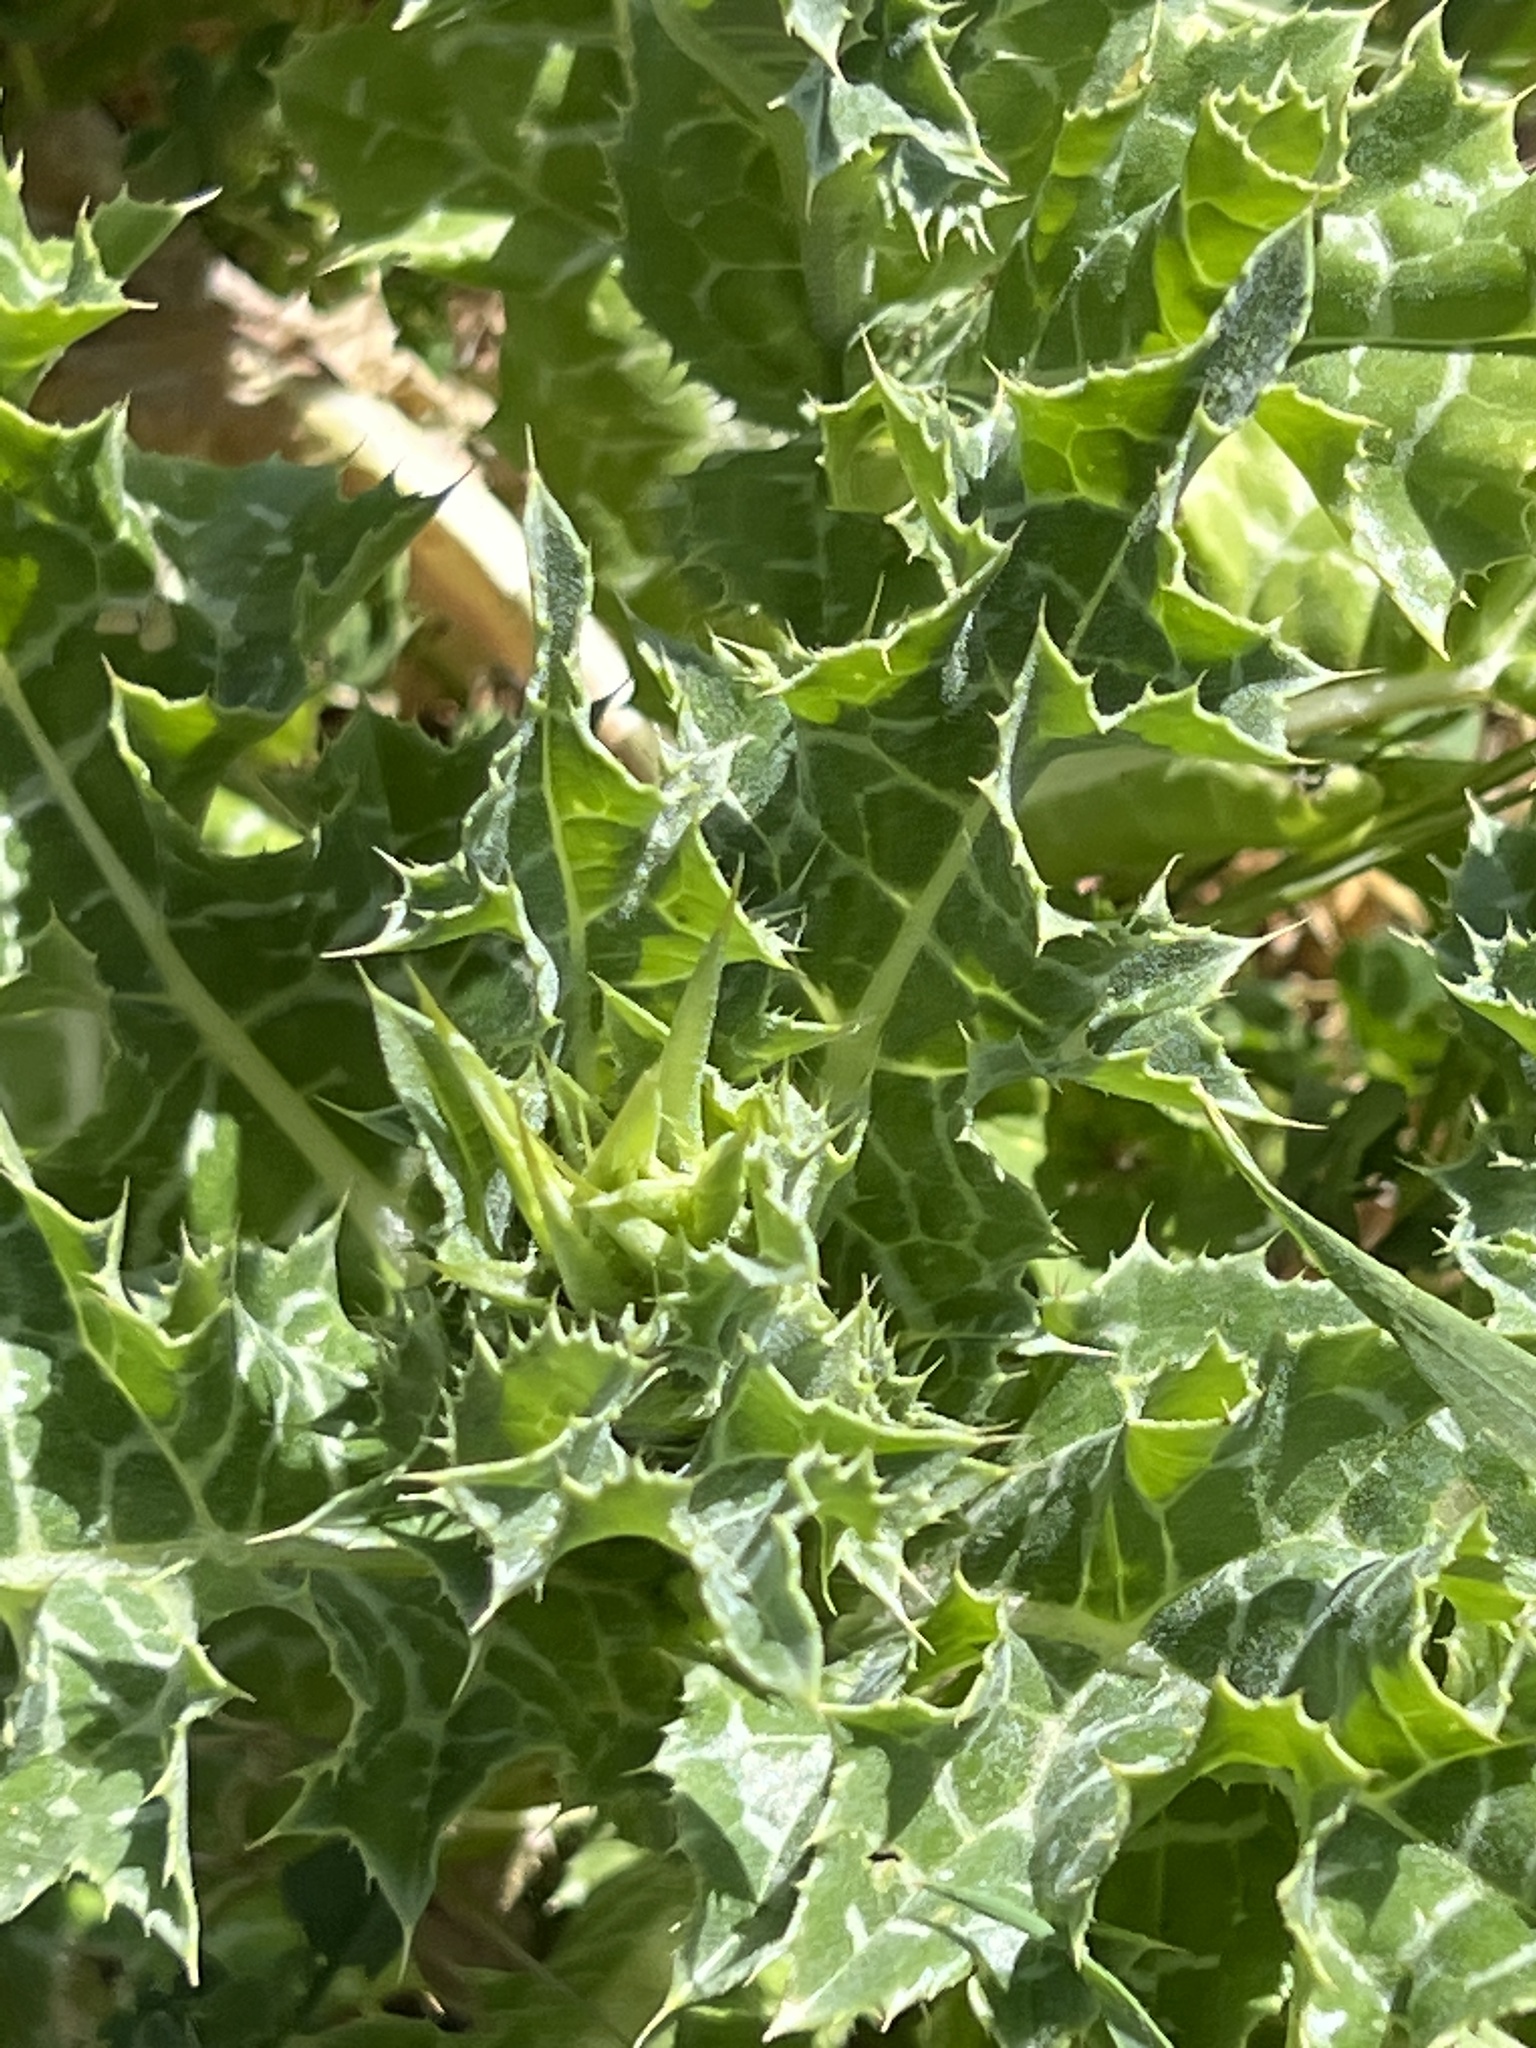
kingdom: Plantae
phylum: Tracheophyta
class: Magnoliopsida
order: Asterales
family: Asteraceae
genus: Silybum
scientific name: Silybum marianum
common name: Milk thistle
